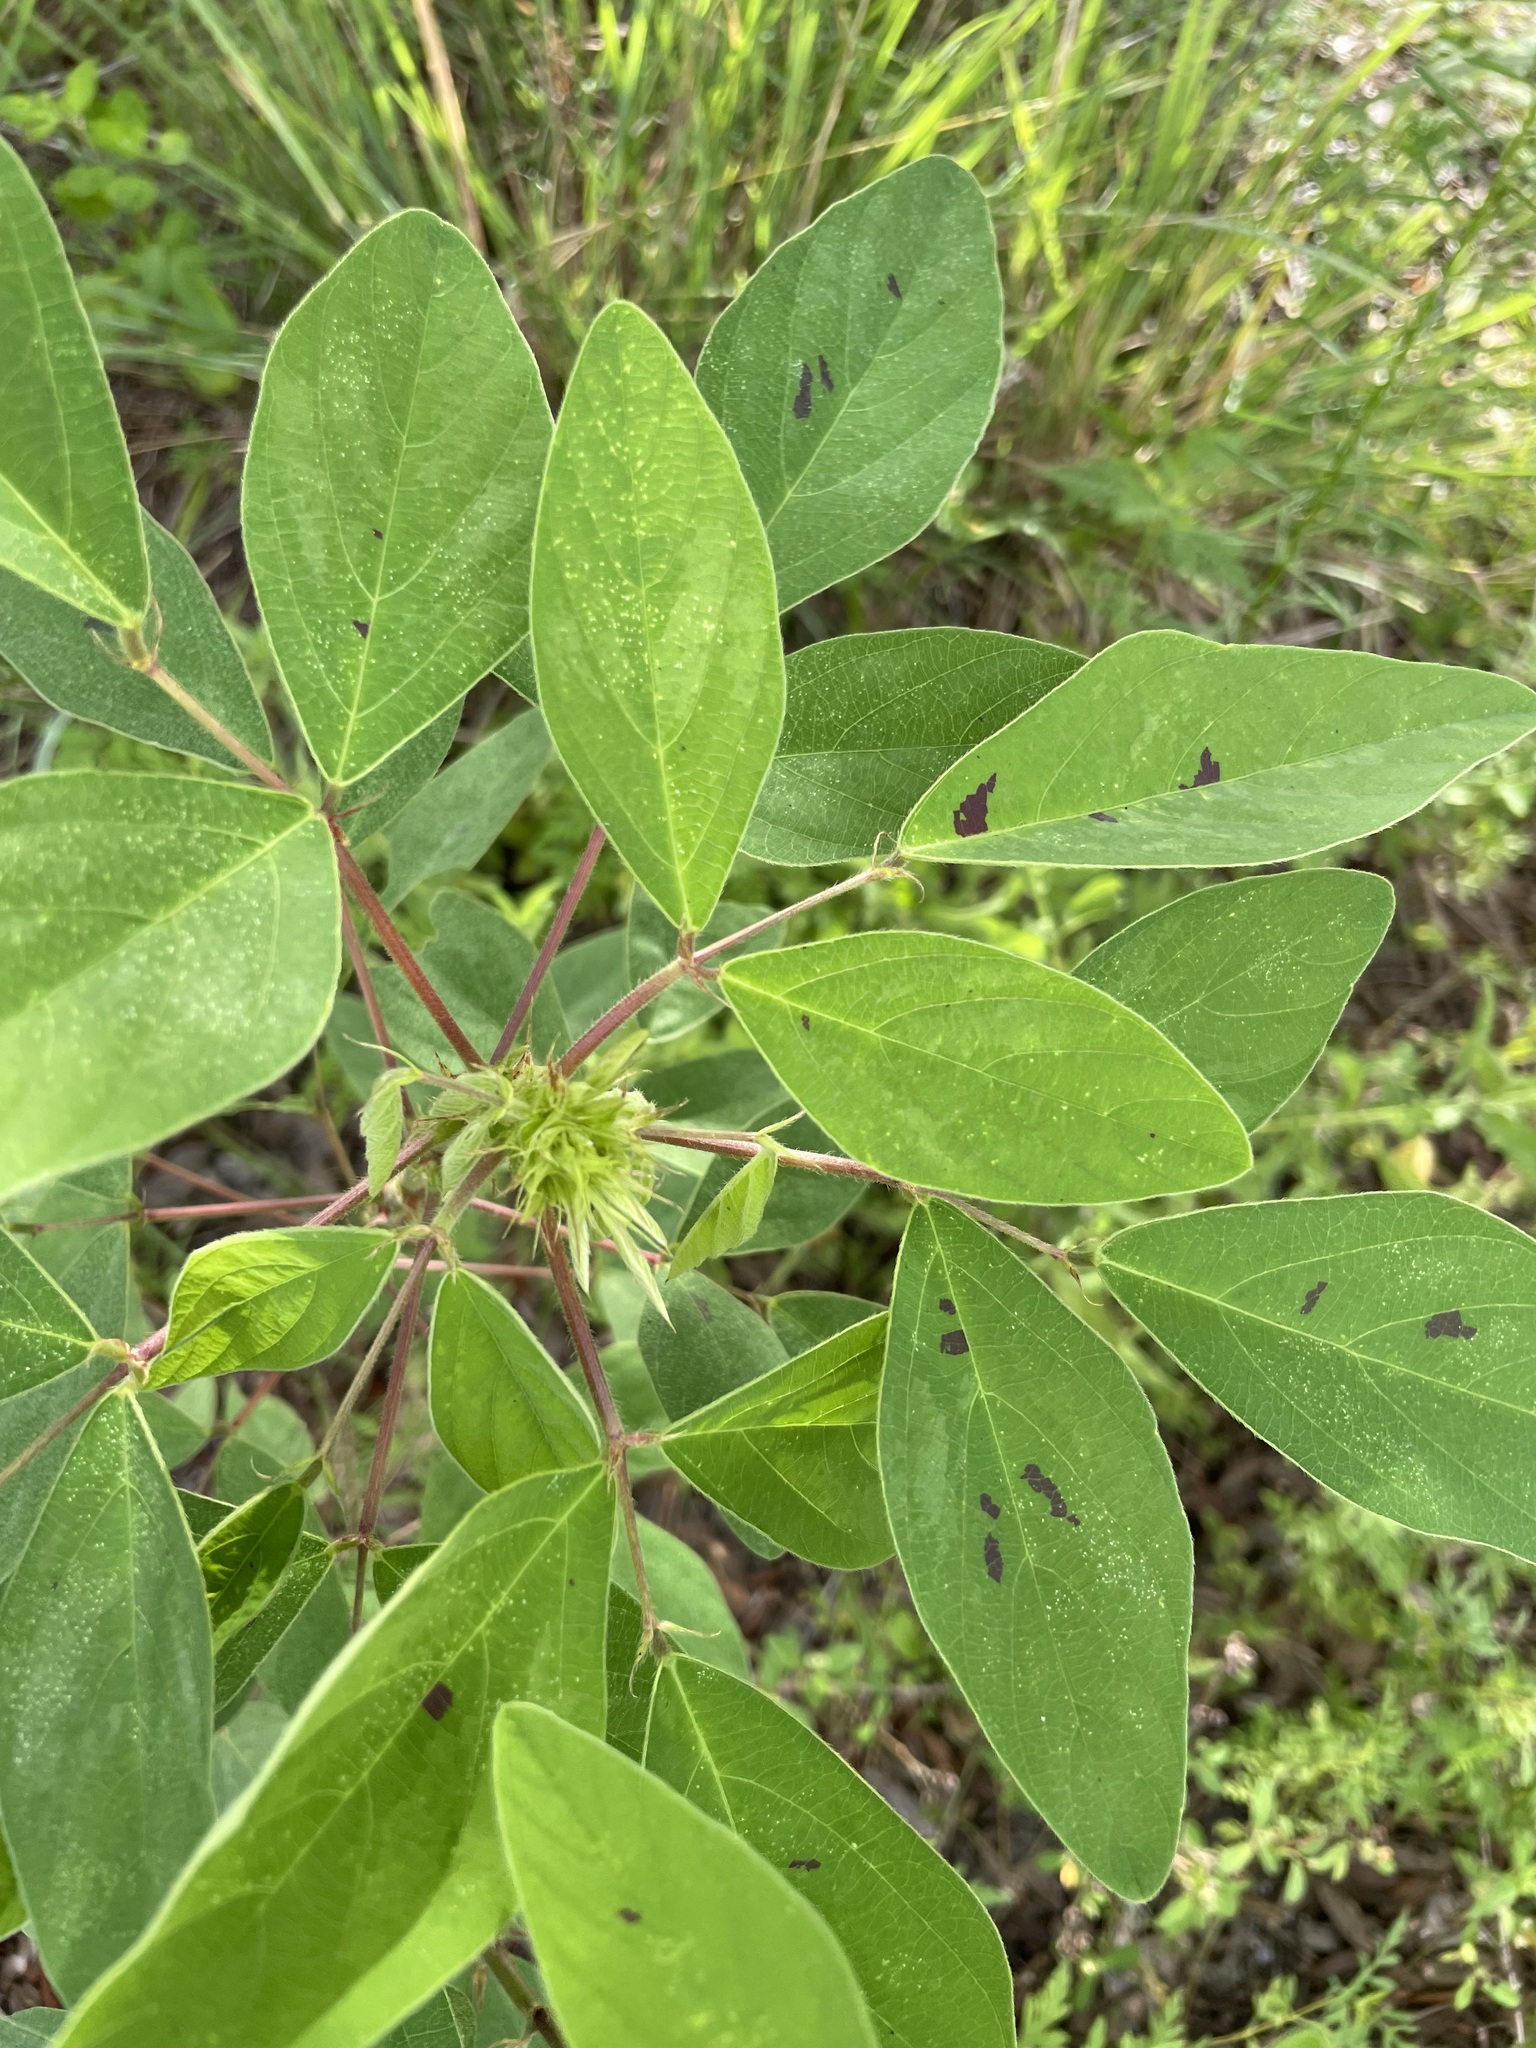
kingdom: Plantae
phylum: Tracheophyta
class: Magnoliopsida
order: Fabales
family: Fabaceae
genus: Desmodium
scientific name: Desmodium tortuosum
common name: Dixie ticktrefoil
